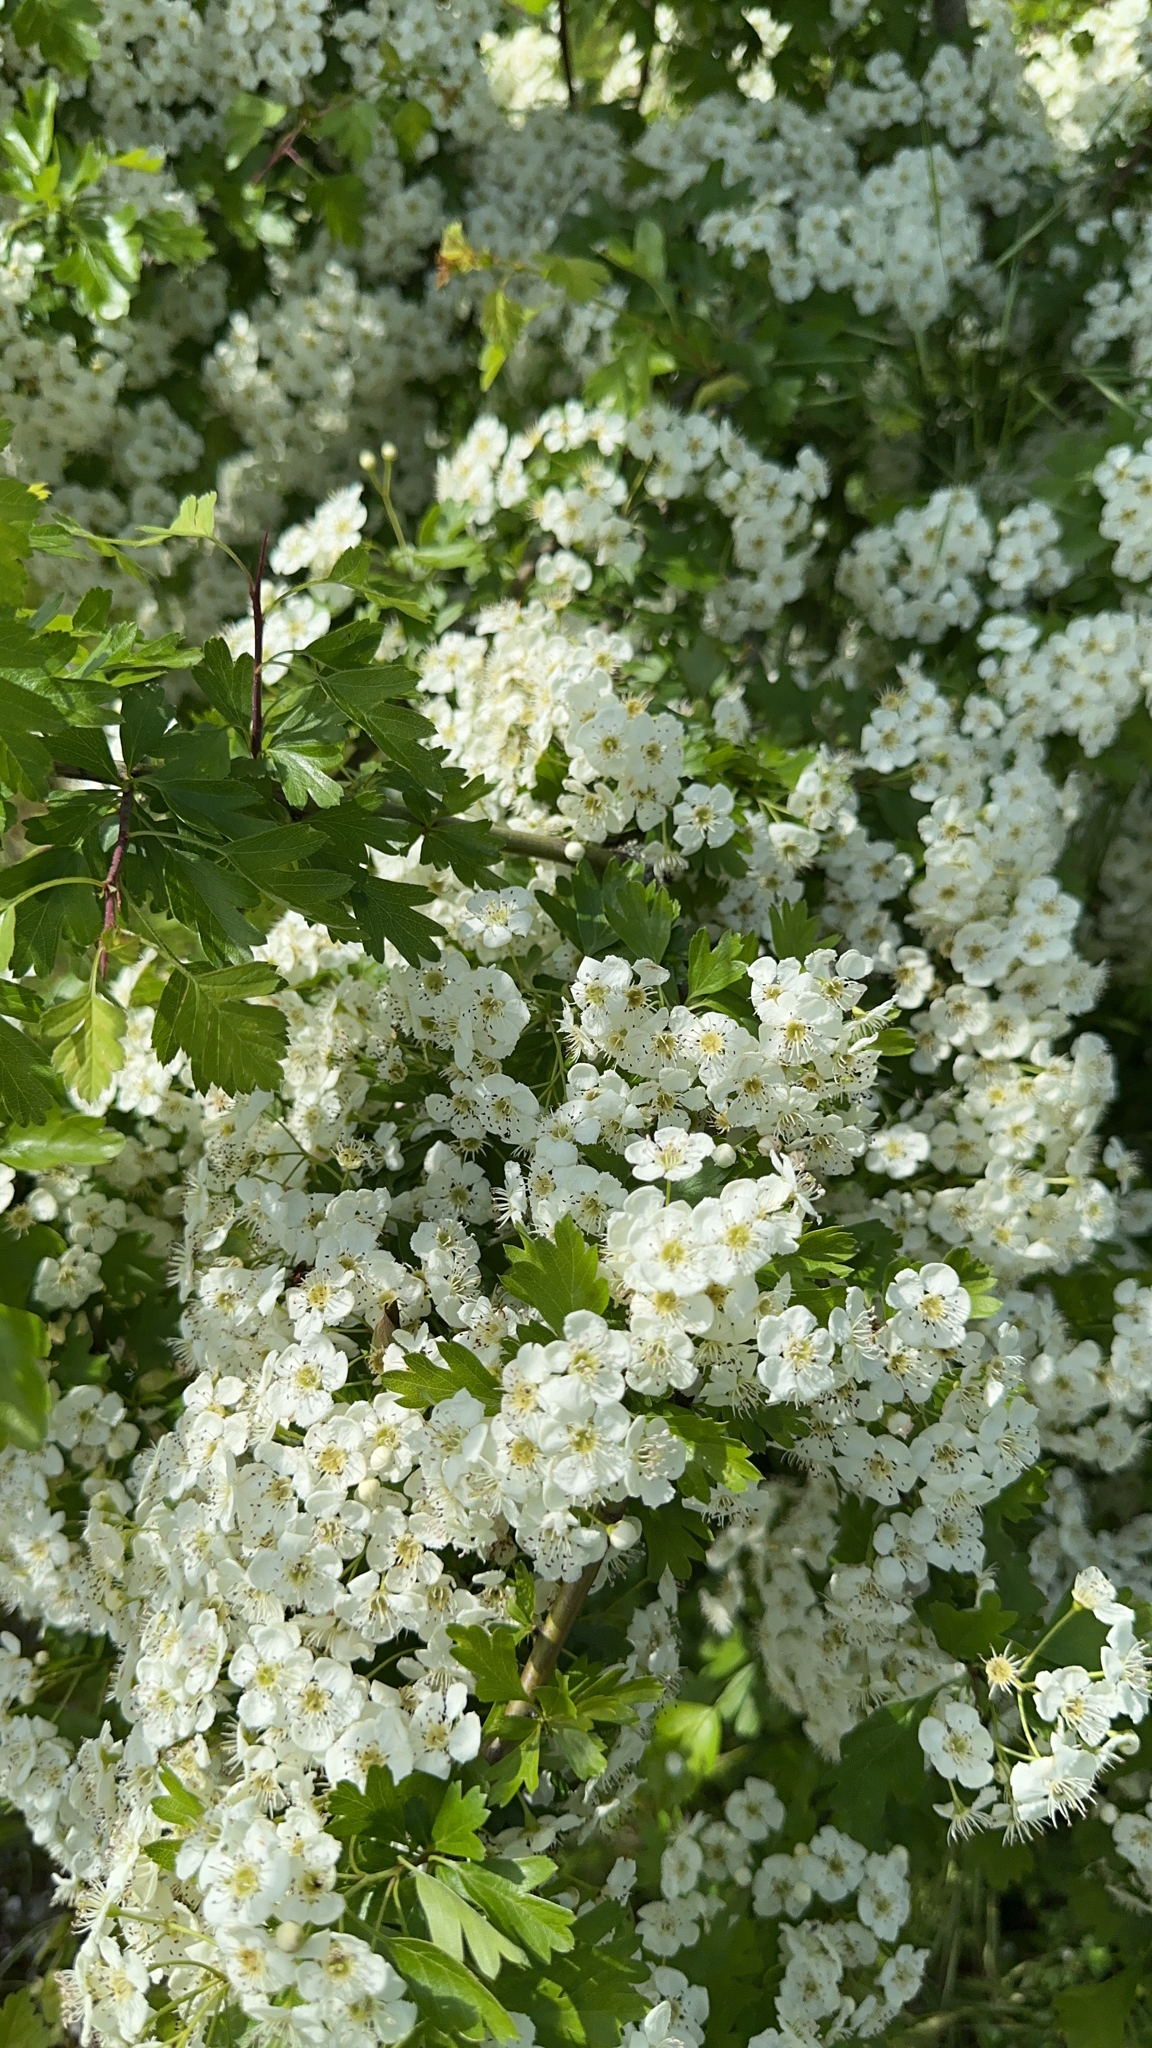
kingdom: Plantae
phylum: Tracheophyta
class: Magnoliopsida
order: Rosales
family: Rosaceae
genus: Crataegus
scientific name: Crataegus monogyna
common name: Hawthorn
